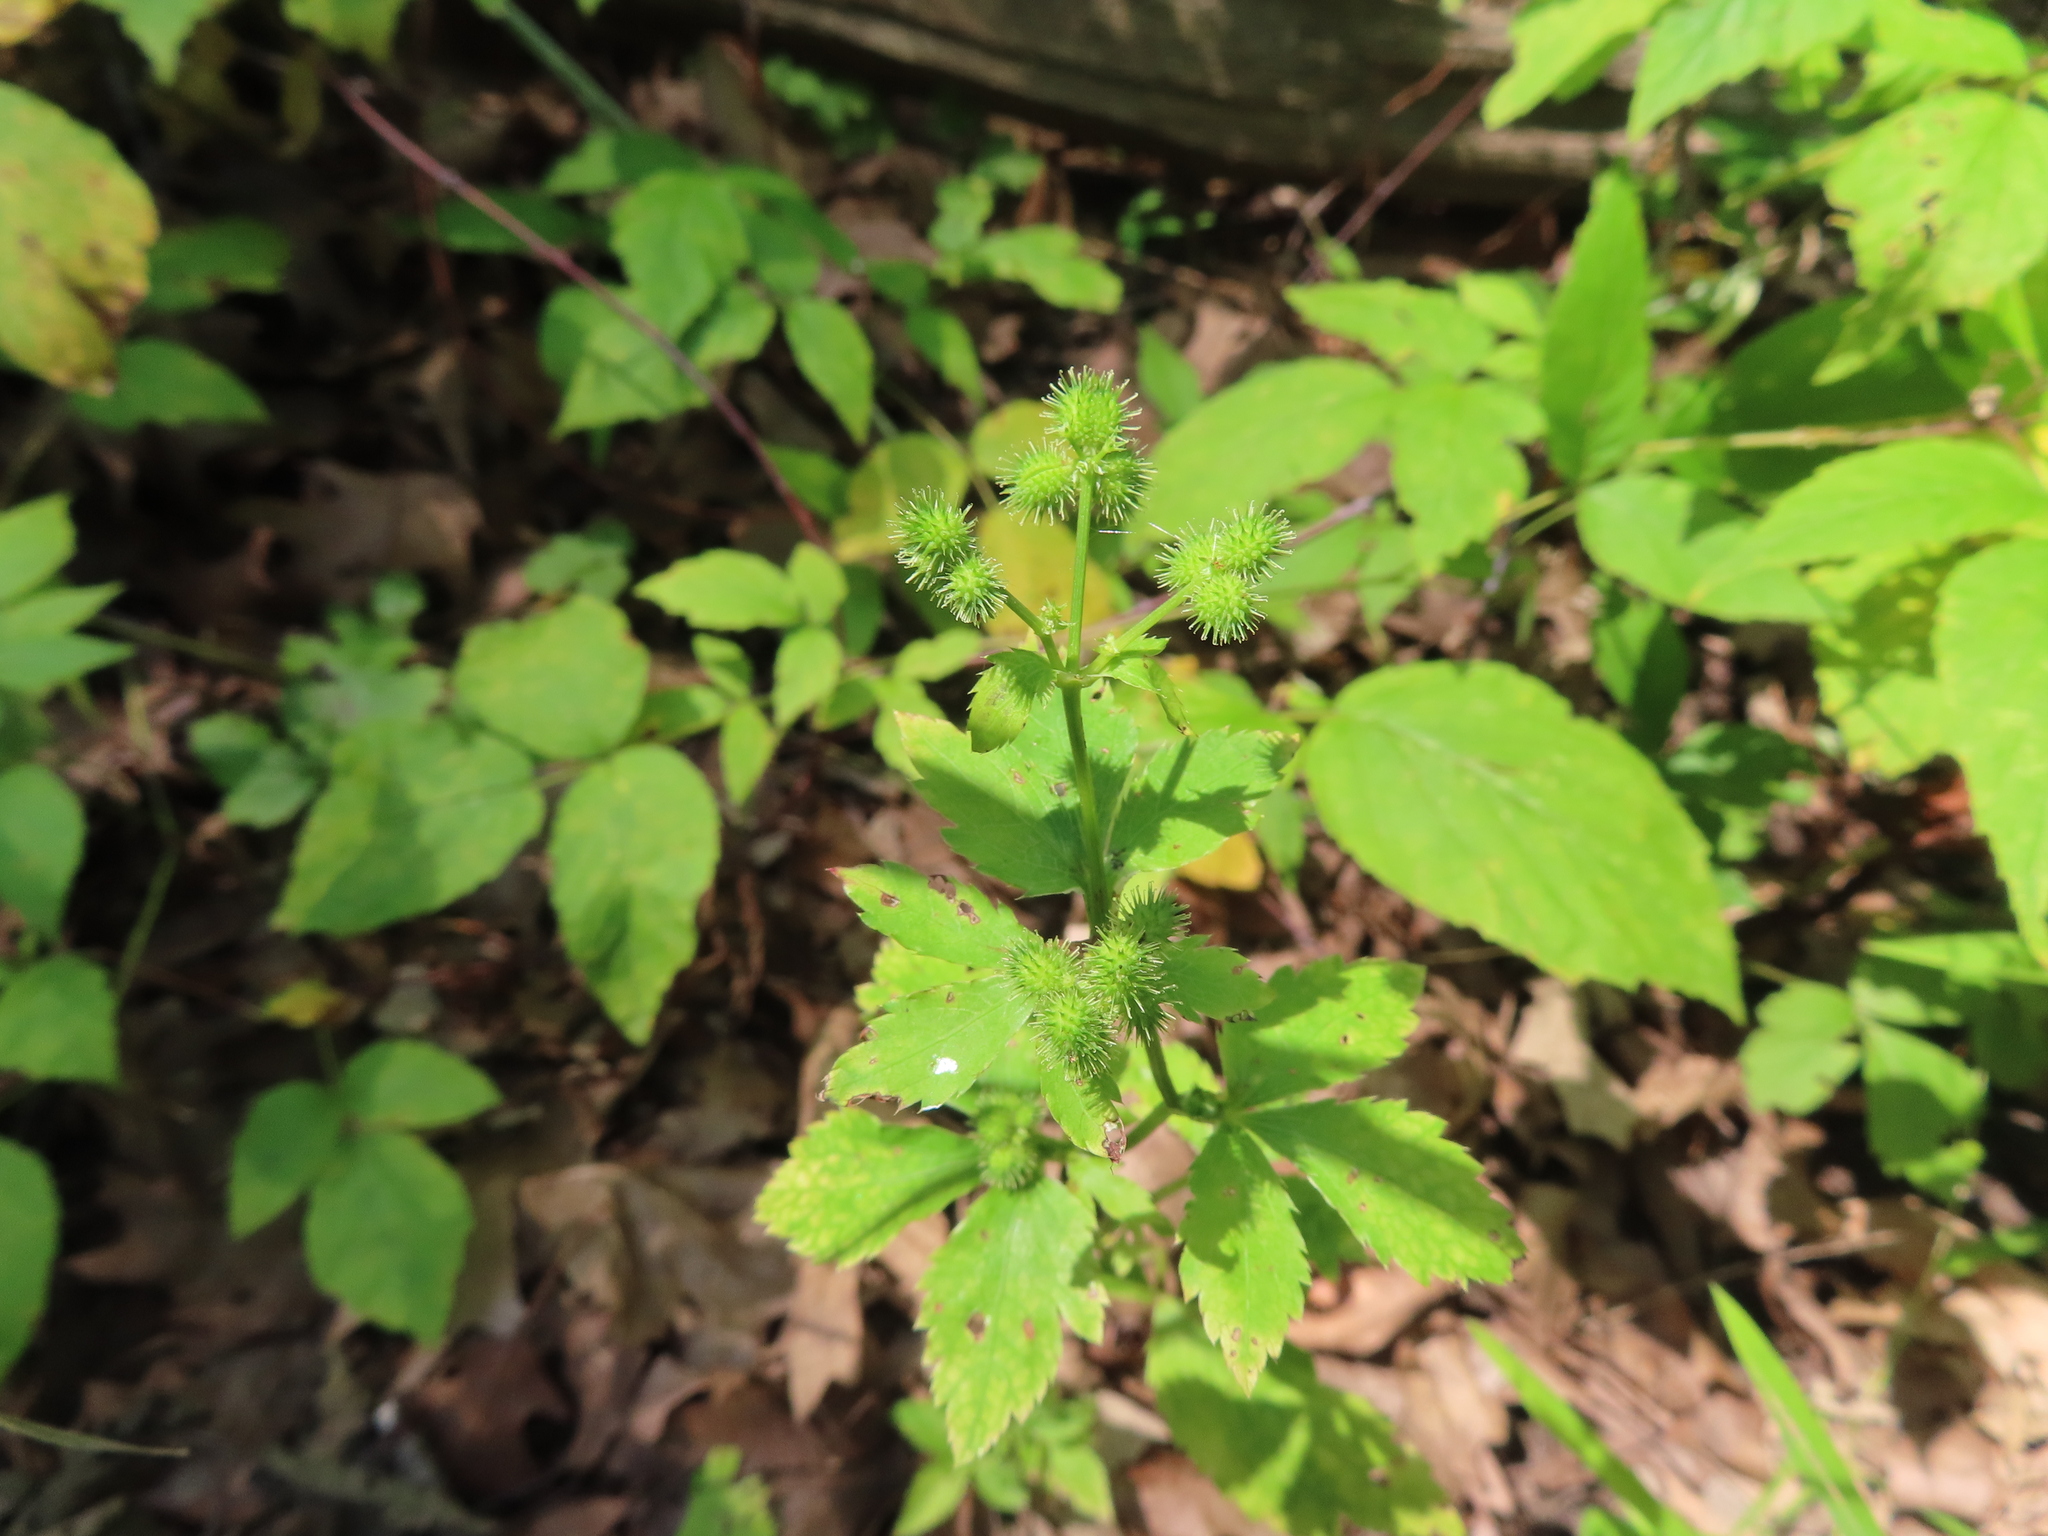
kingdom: Plantae
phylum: Tracheophyta
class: Magnoliopsida
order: Apiales
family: Apiaceae
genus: Sanicula
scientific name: Sanicula canadensis
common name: Canada sanicle
